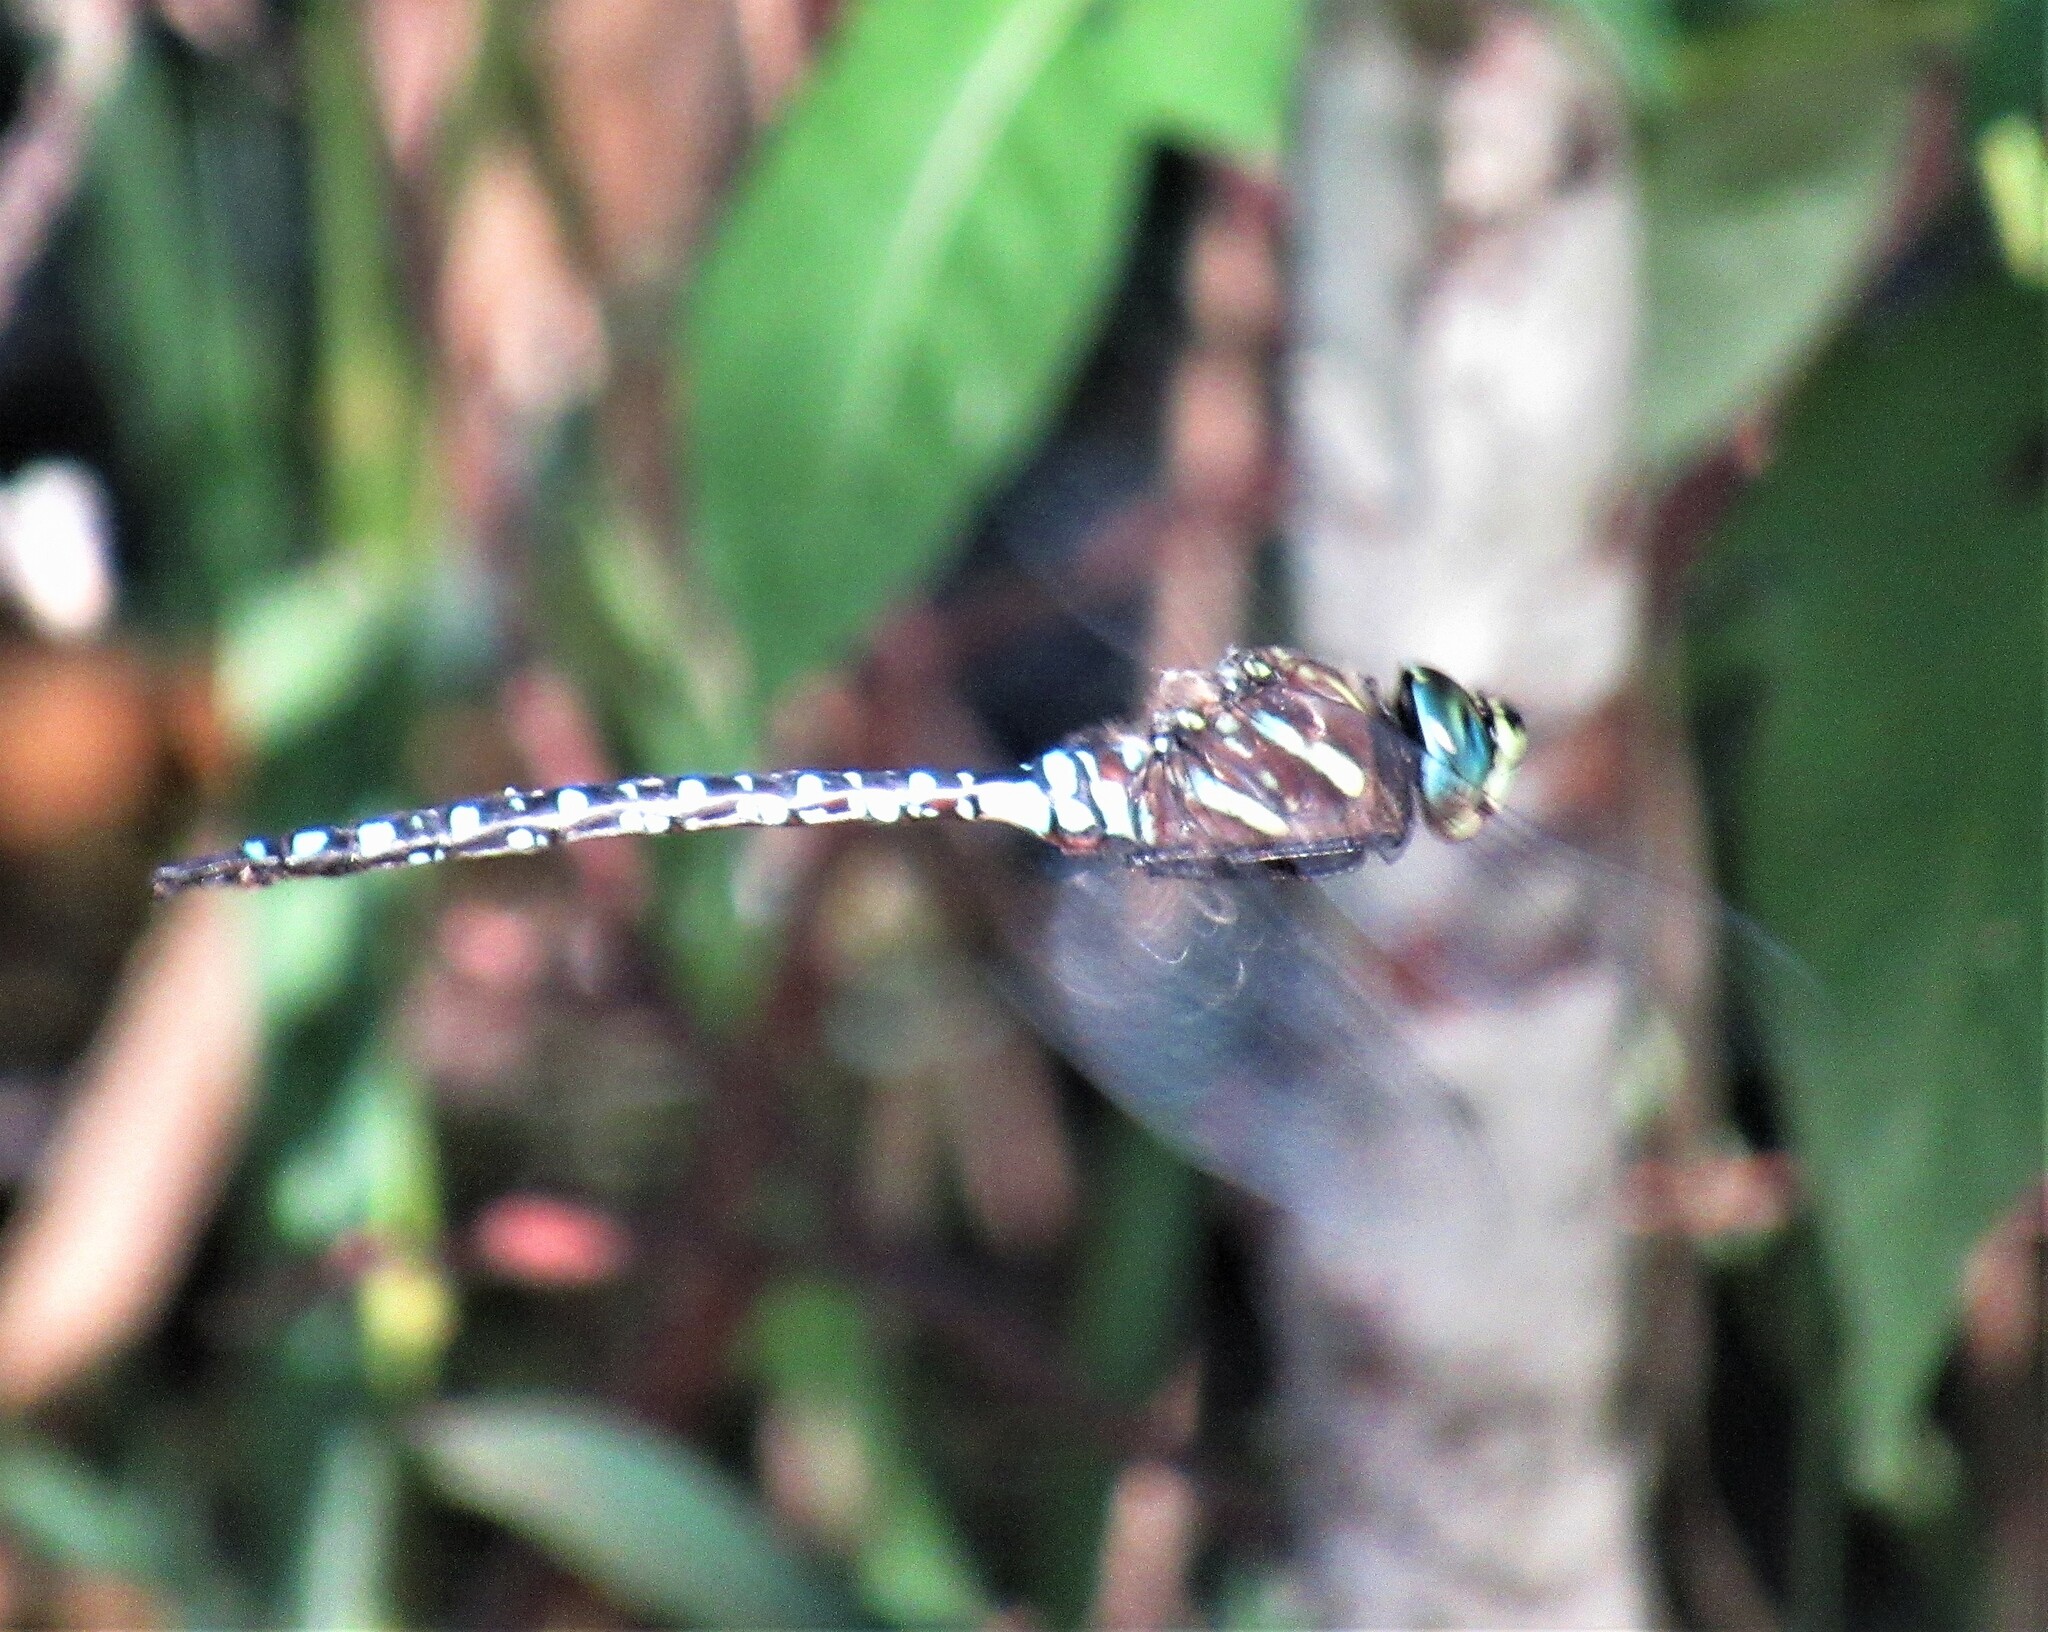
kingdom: Animalia
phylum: Arthropoda
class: Insecta
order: Odonata
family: Aeshnidae
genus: Aeshna
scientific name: Aeshna palmata
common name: Paddle-tailed darner
